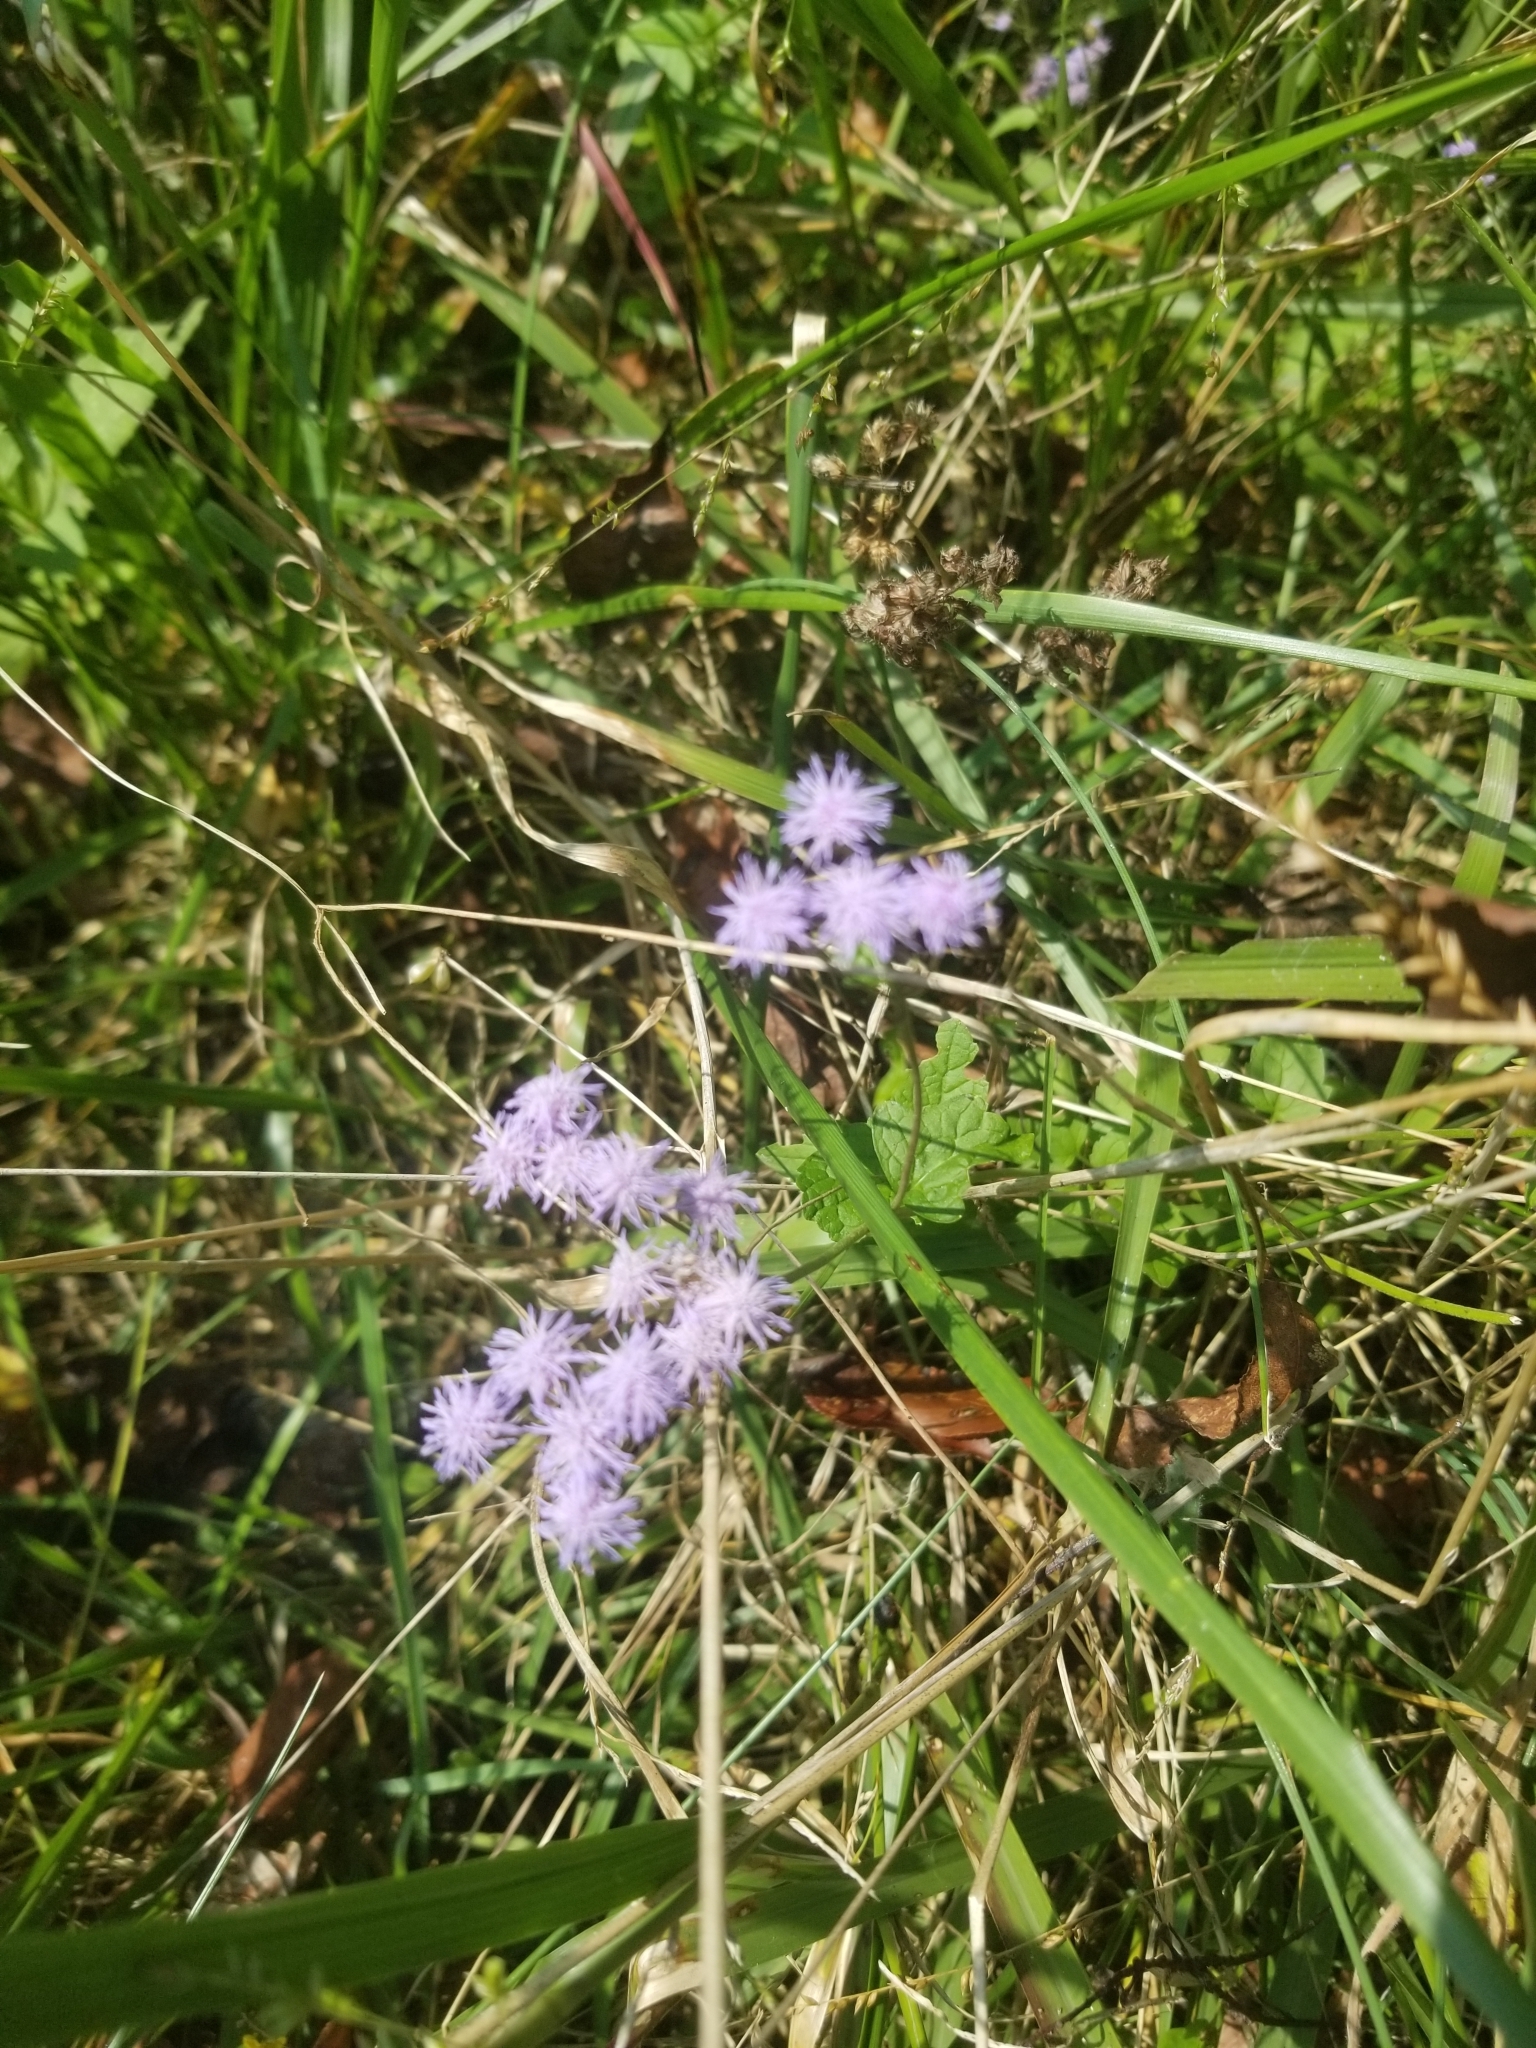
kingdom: Plantae
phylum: Tracheophyta
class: Magnoliopsida
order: Asterales
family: Asteraceae
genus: Conoclinium
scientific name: Conoclinium coelestinum
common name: Blue mistflower
